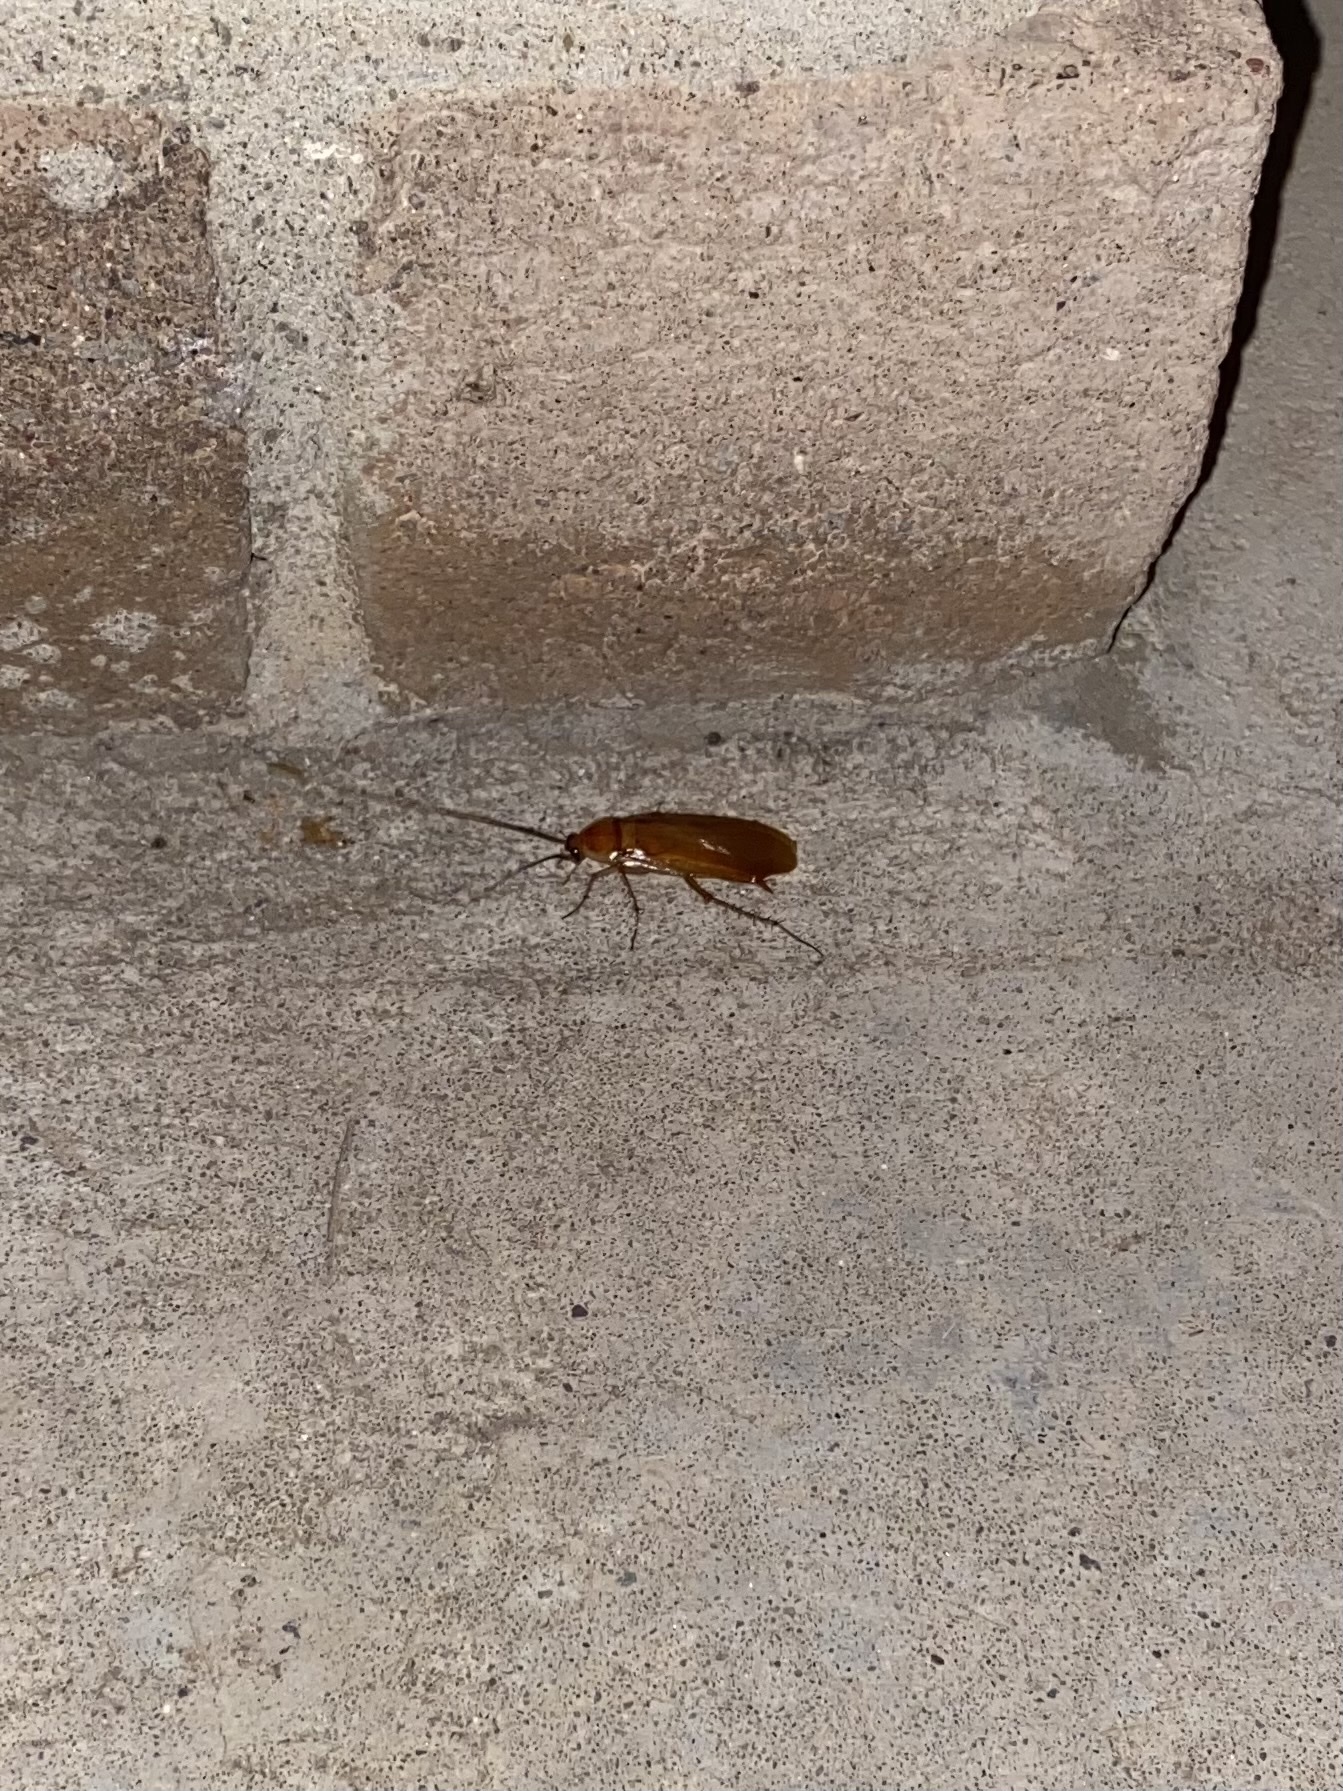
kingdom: Animalia
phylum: Arthropoda
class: Insecta
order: Blattodea
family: Blattidae
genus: Periplaneta
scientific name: Periplaneta lateralis
